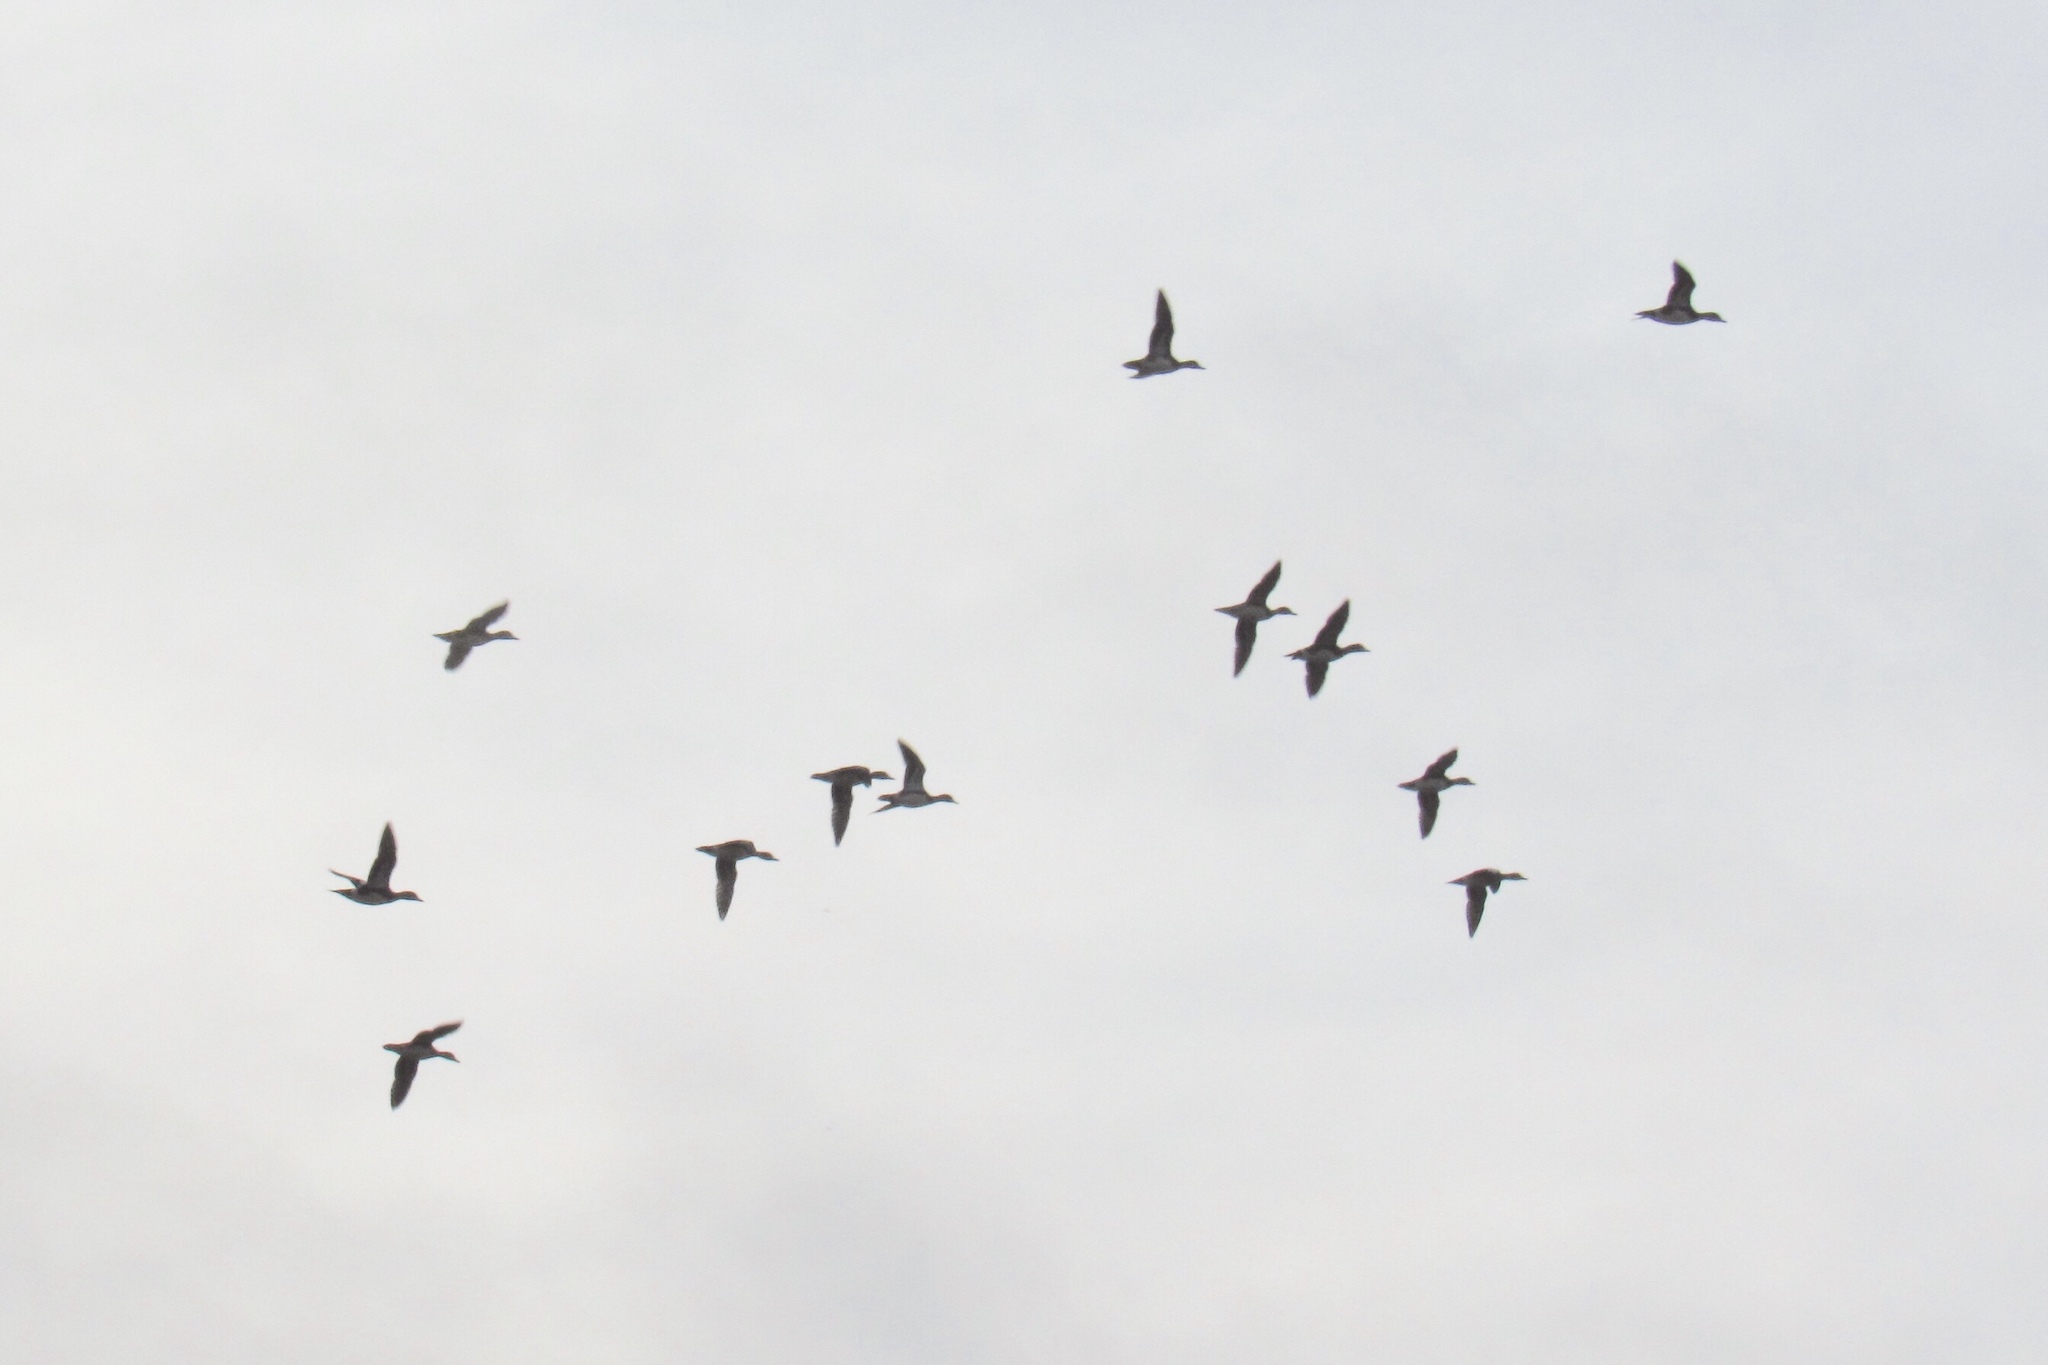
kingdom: Animalia
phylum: Chordata
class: Aves
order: Anseriformes
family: Anatidae
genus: Mareca
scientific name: Mareca americana
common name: American wigeon
